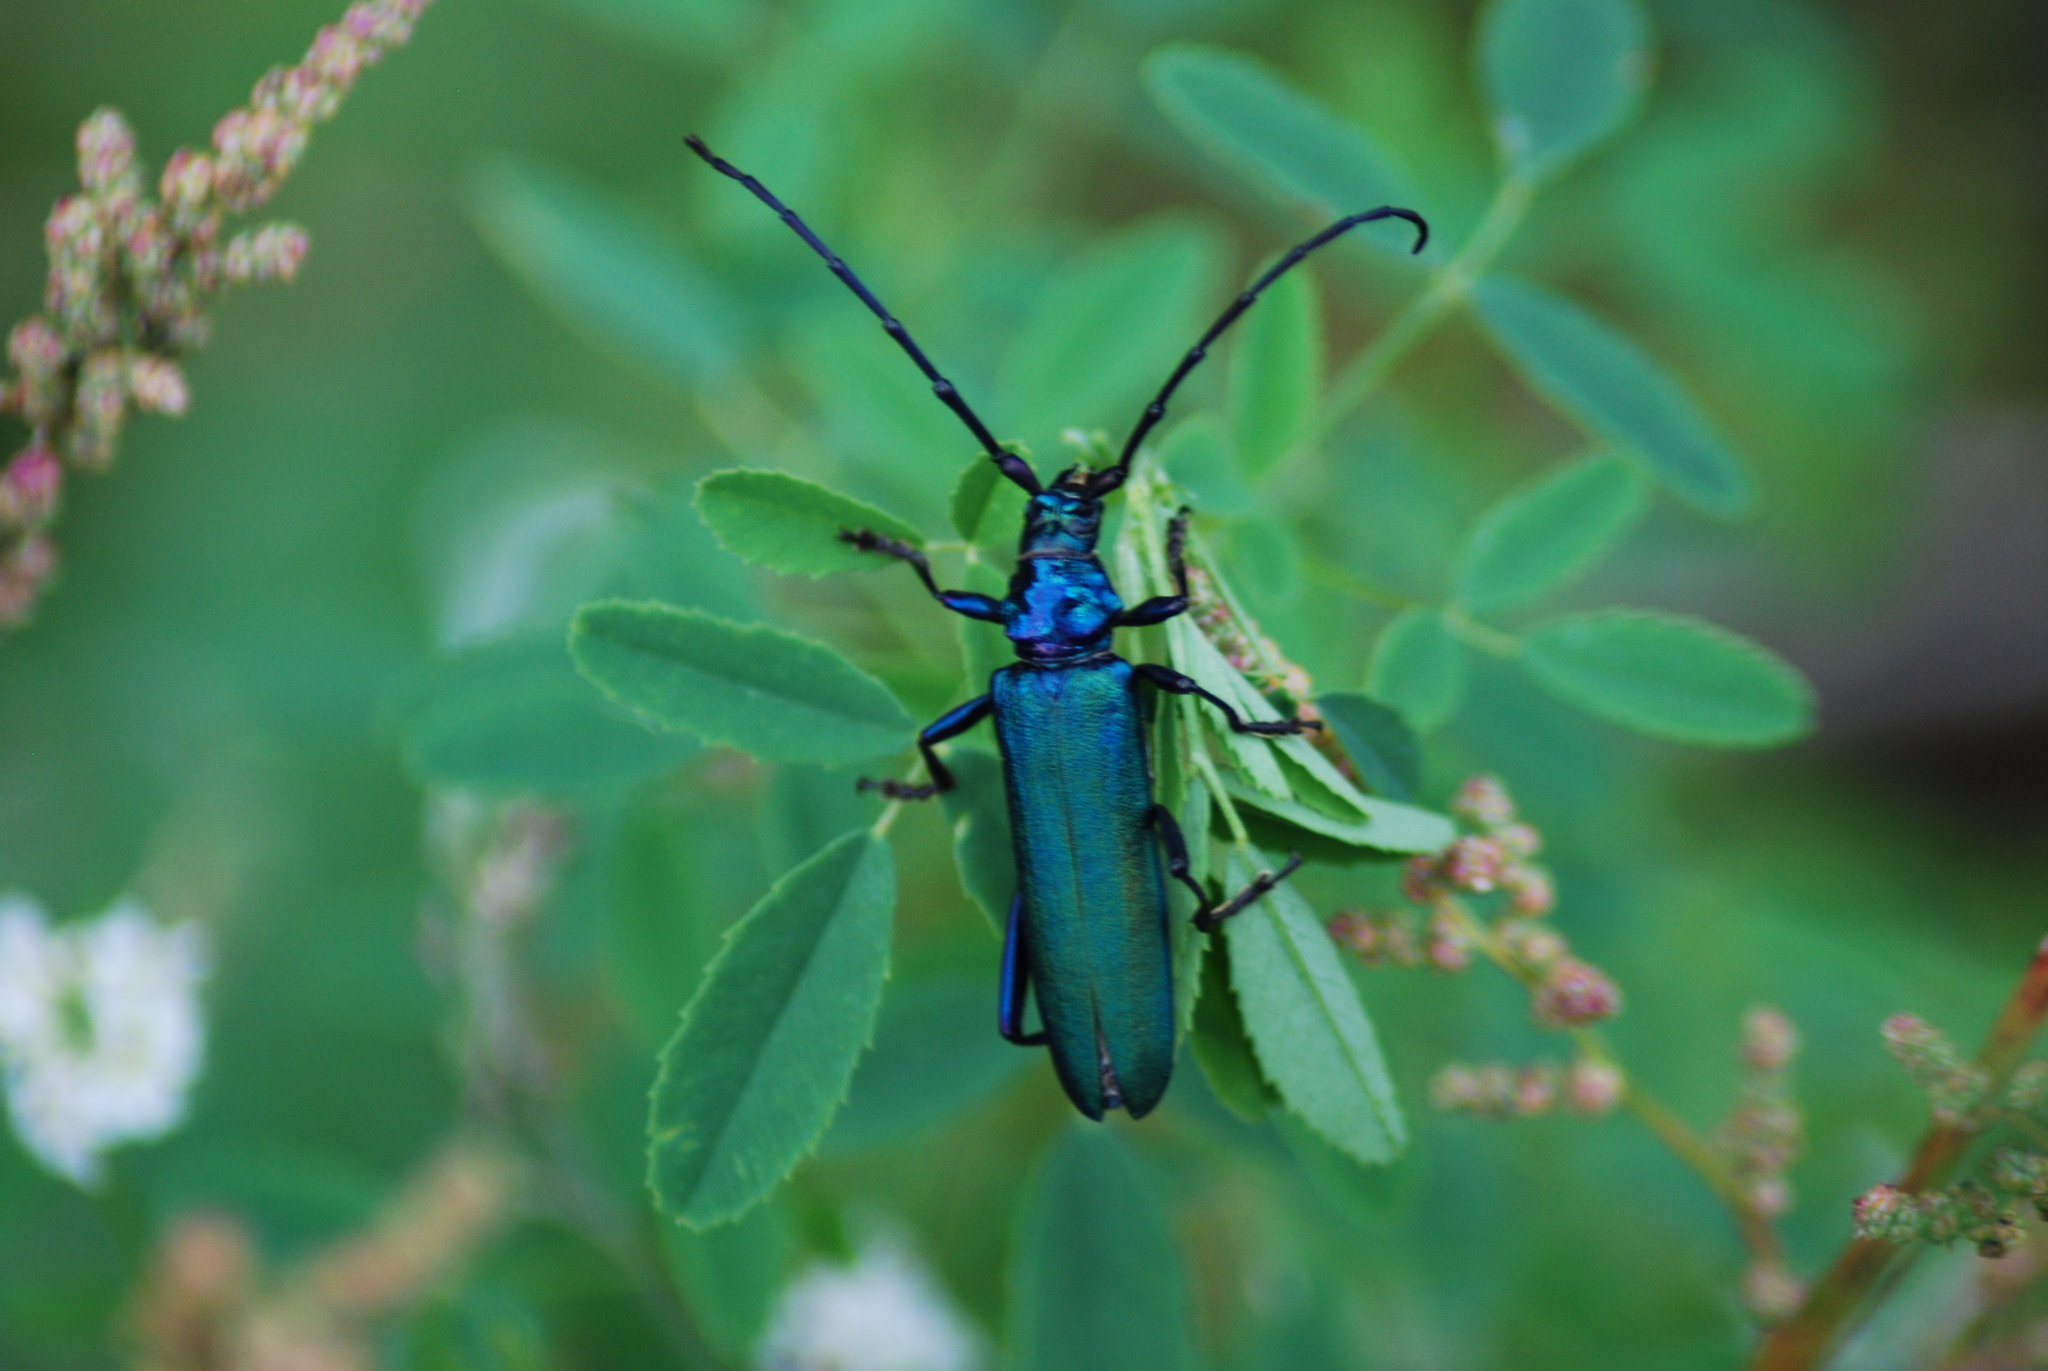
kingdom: Animalia
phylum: Arthropoda
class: Insecta
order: Coleoptera
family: Cerambycidae
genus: Aromia
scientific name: Aromia moschata
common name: Musk beetle
